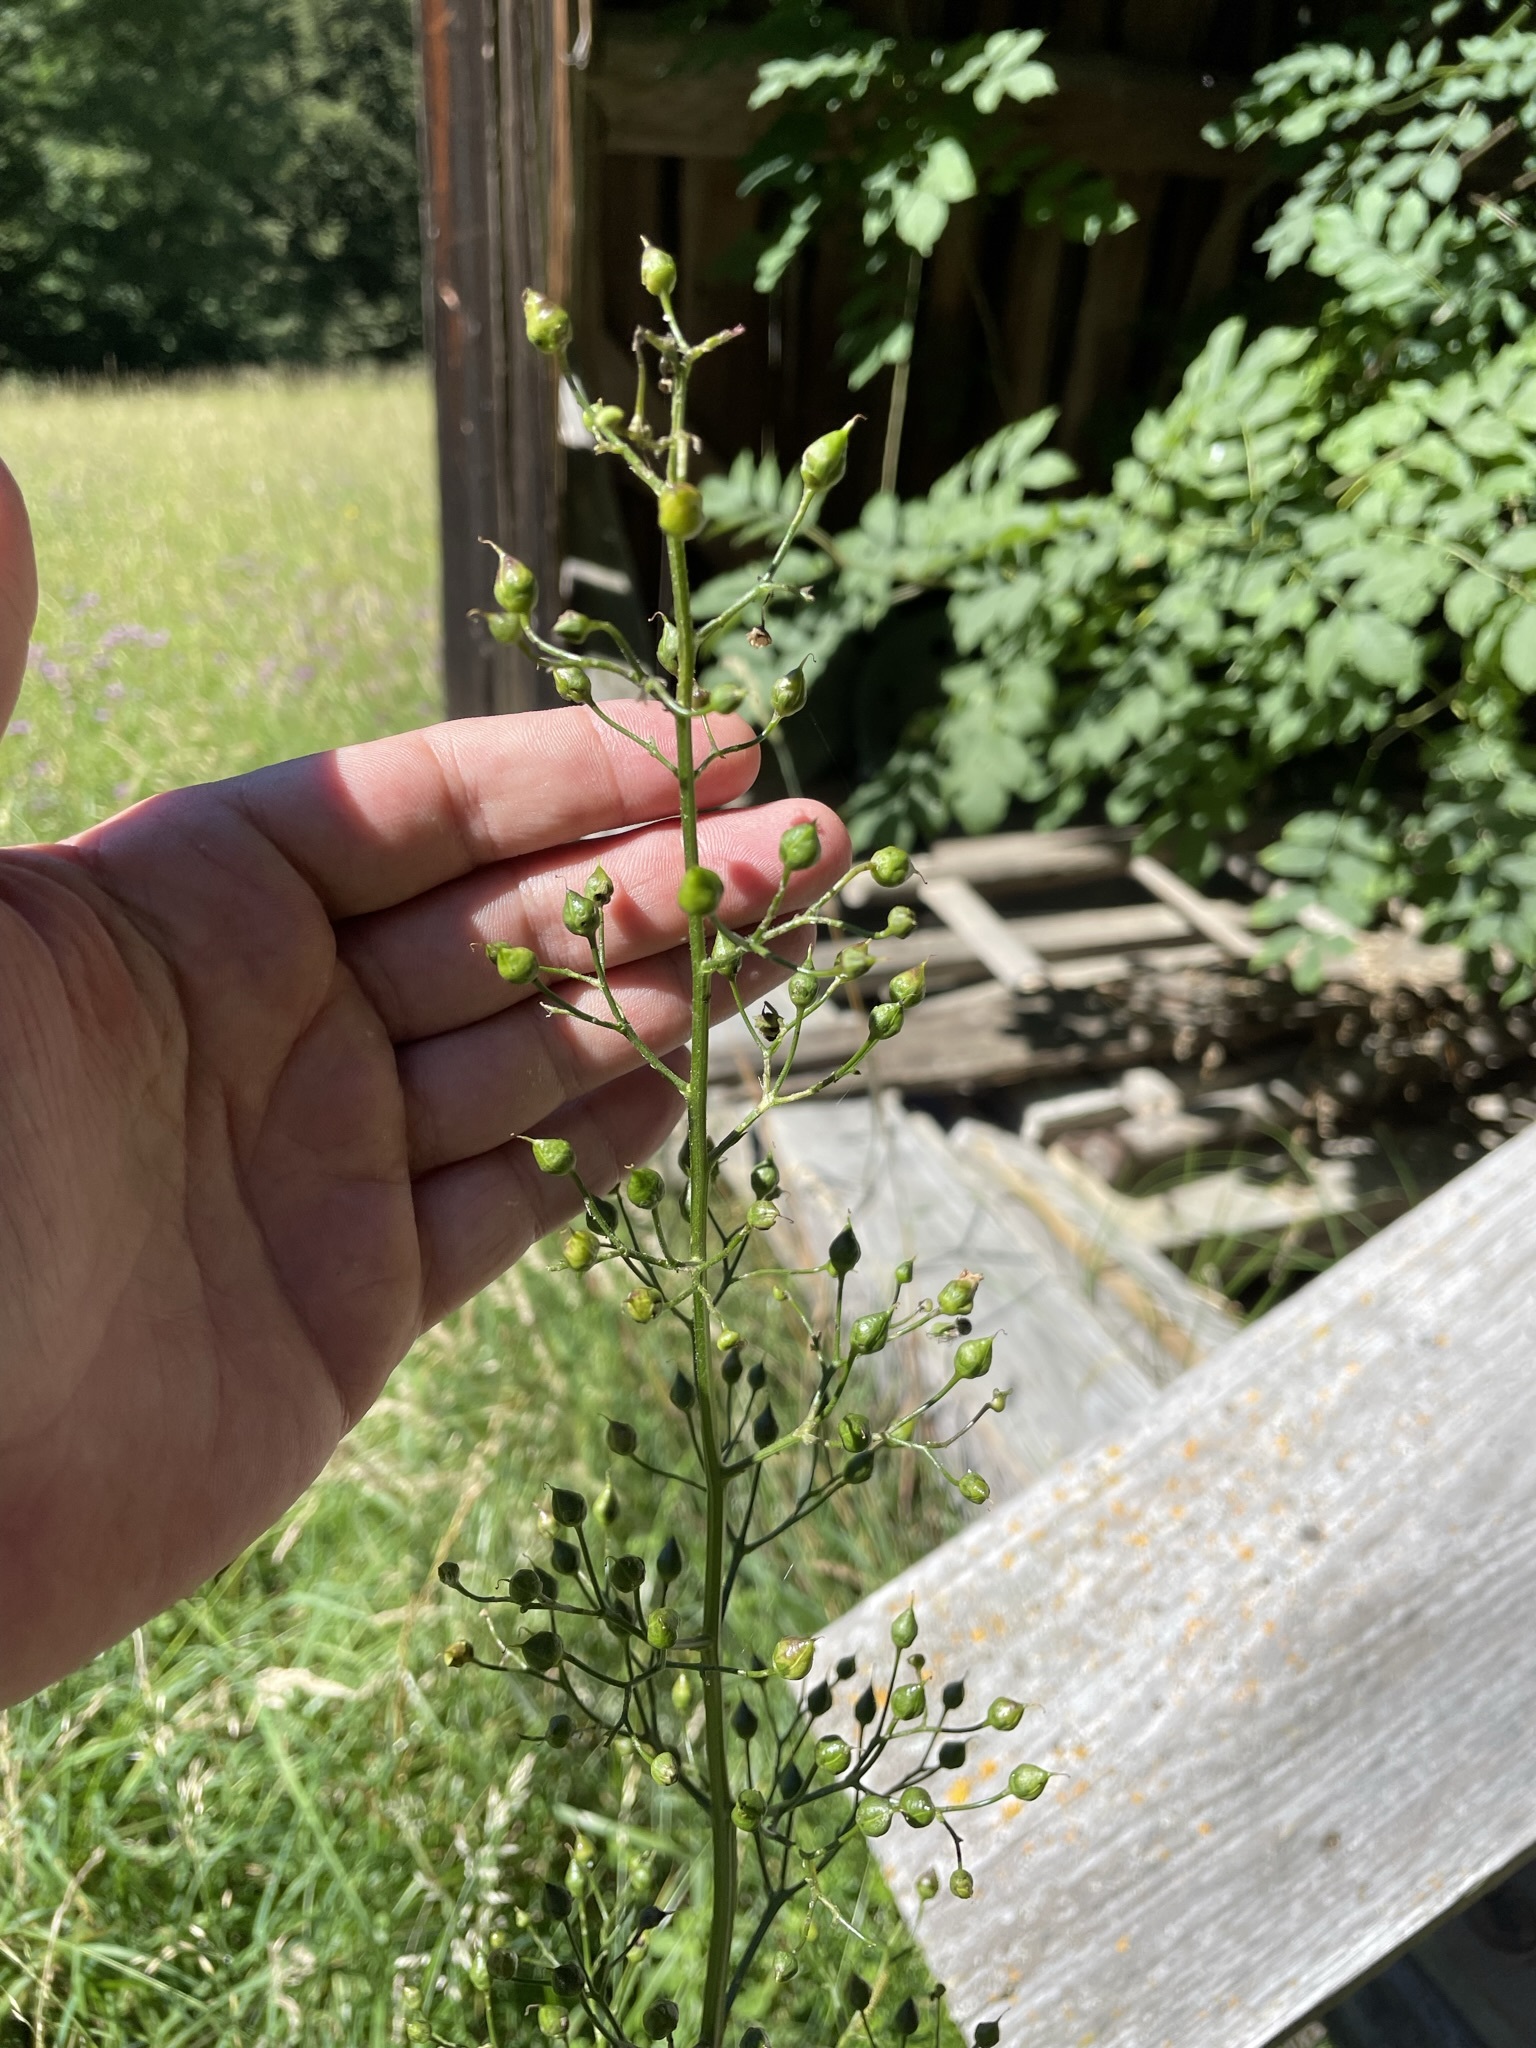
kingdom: Plantae
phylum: Tracheophyta
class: Magnoliopsida
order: Lamiales
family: Scrophulariaceae
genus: Scrophularia
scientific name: Scrophularia nodosa
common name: Common figwort
